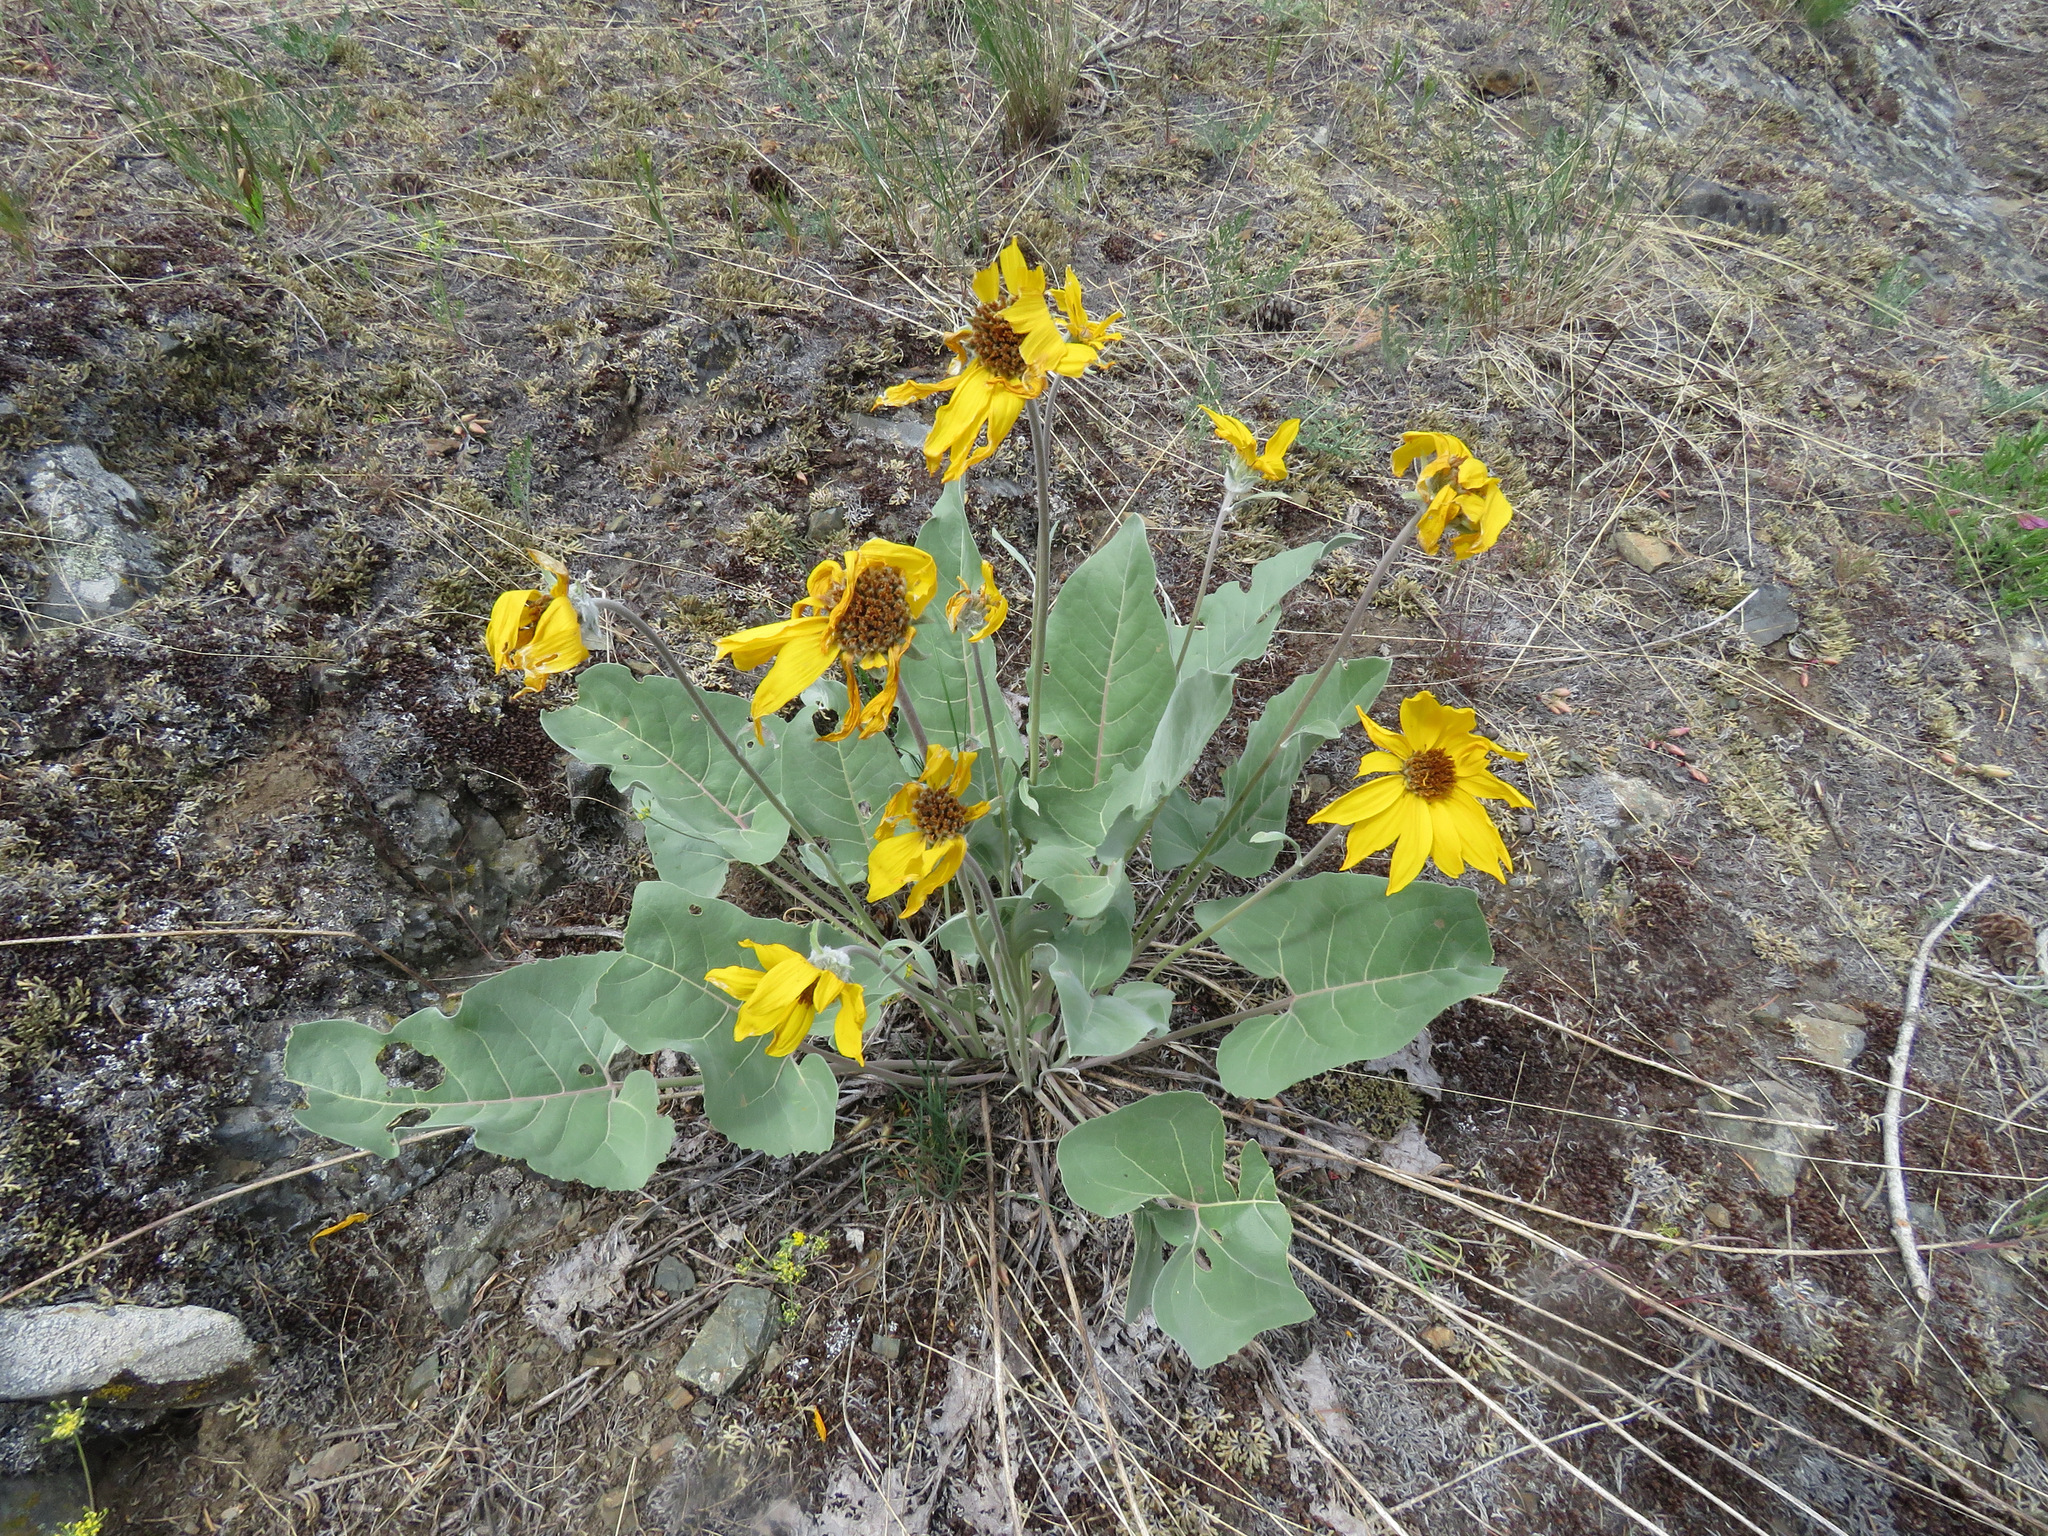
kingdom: Plantae
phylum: Tracheophyta
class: Magnoliopsida
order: Asterales
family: Asteraceae
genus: Wyethia
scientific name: Wyethia sagittata
